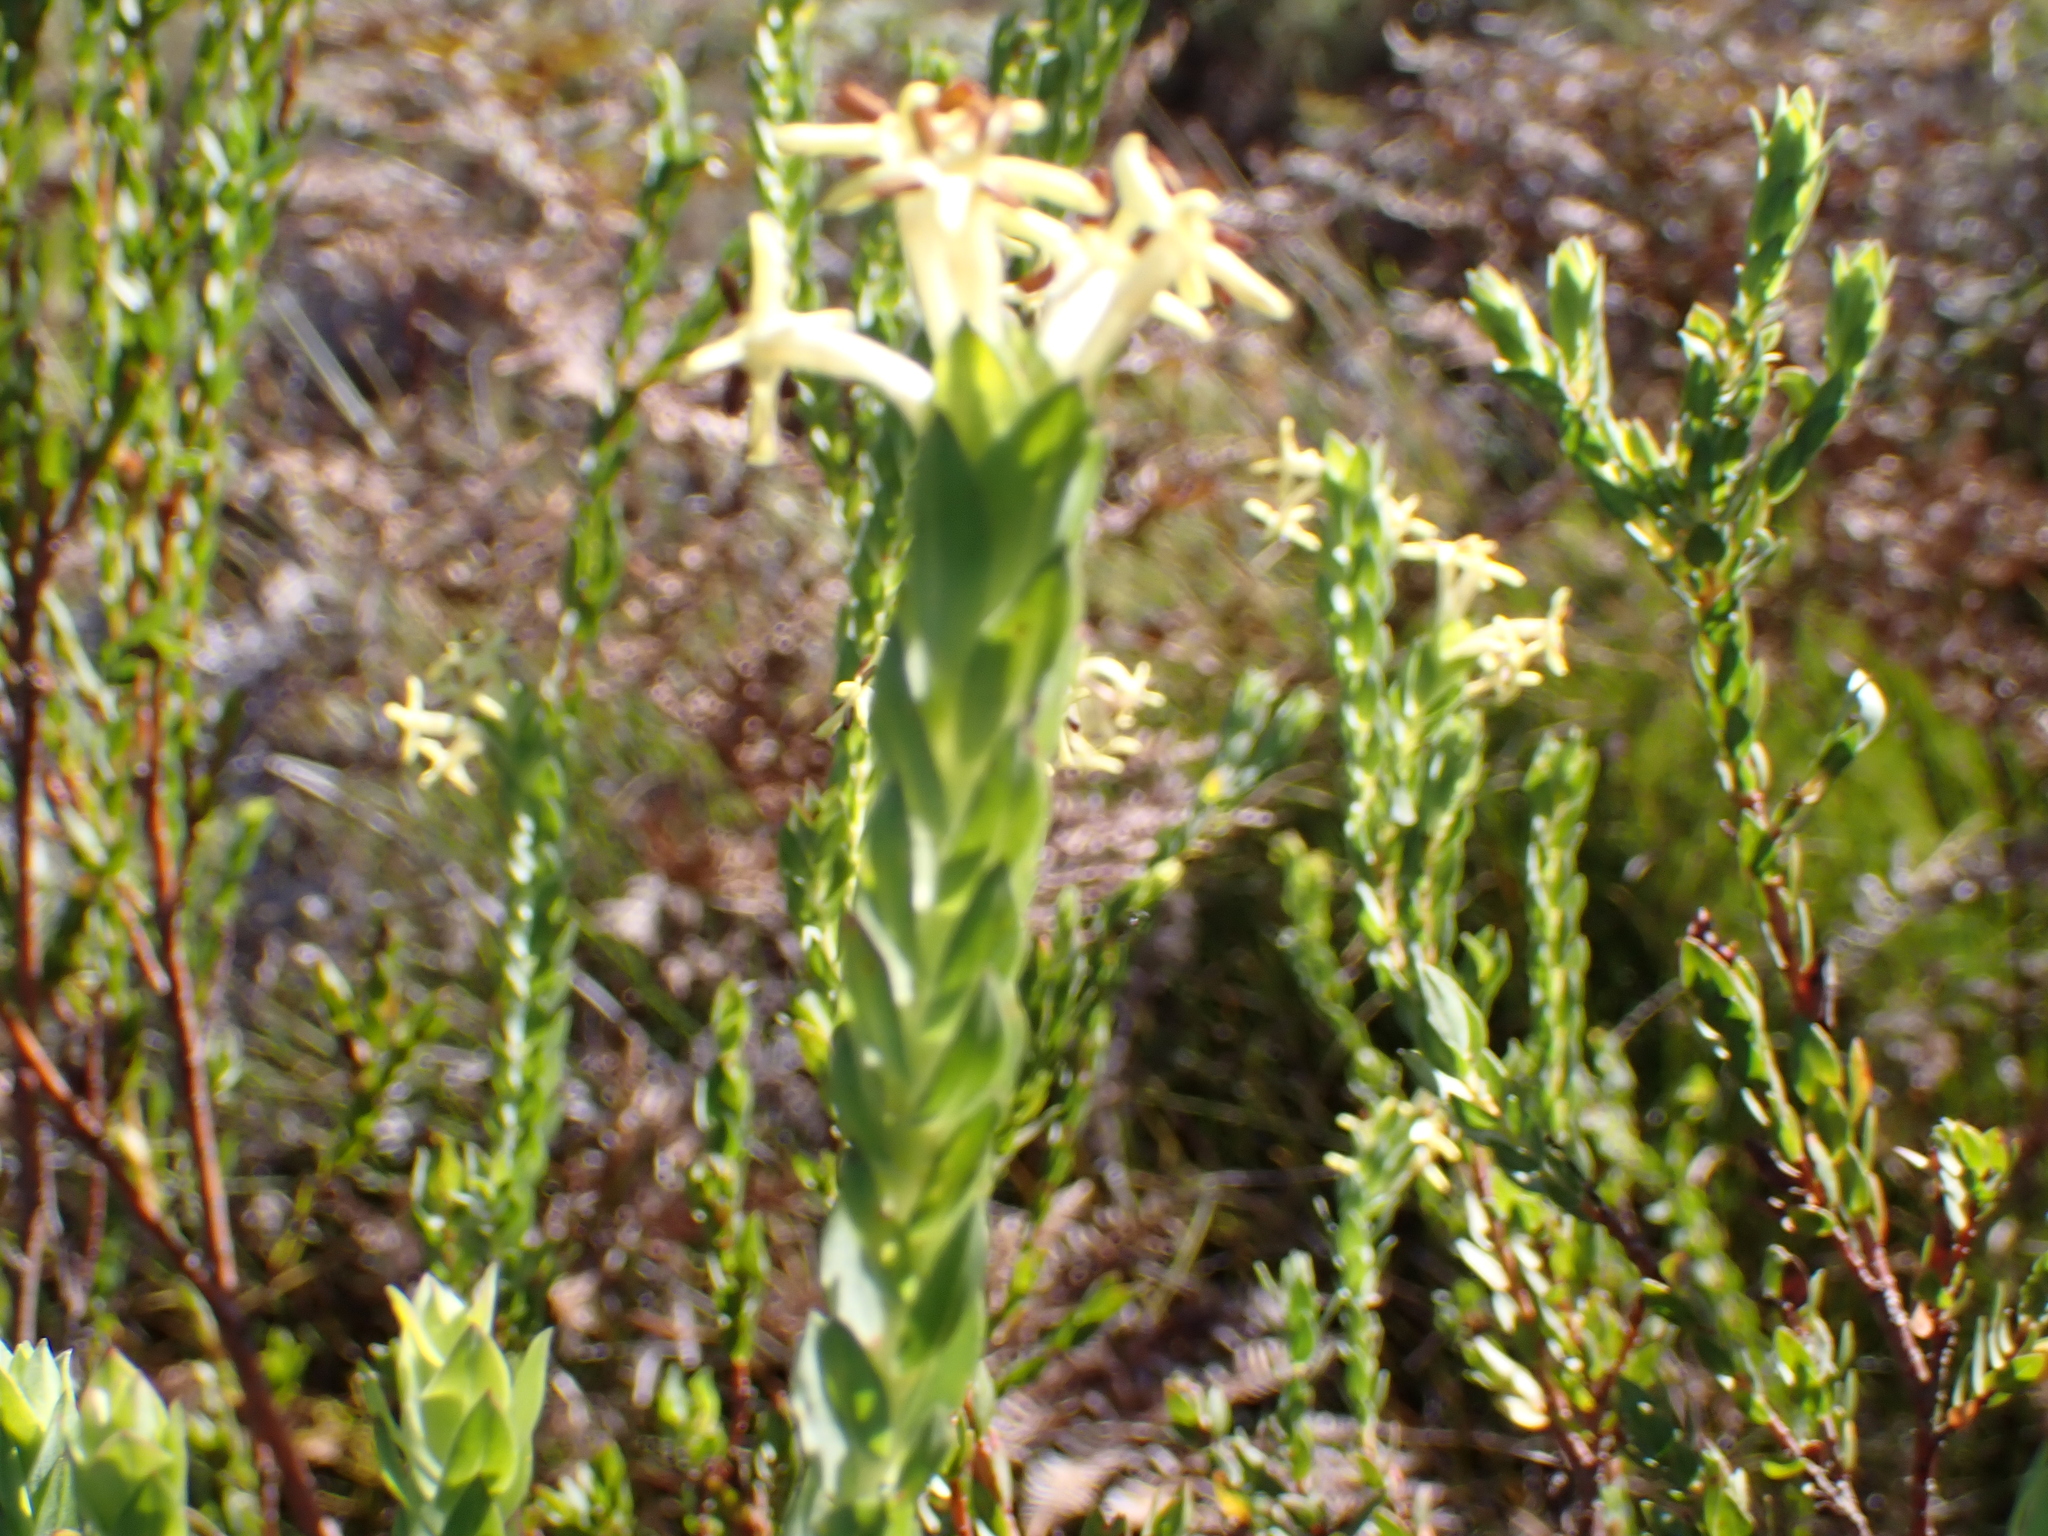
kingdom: Plantae
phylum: Tracheophyta
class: Magnoliopsida
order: Malvales
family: Thymelaeaceae
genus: Gnidia
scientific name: Gnidia oppositifolia
